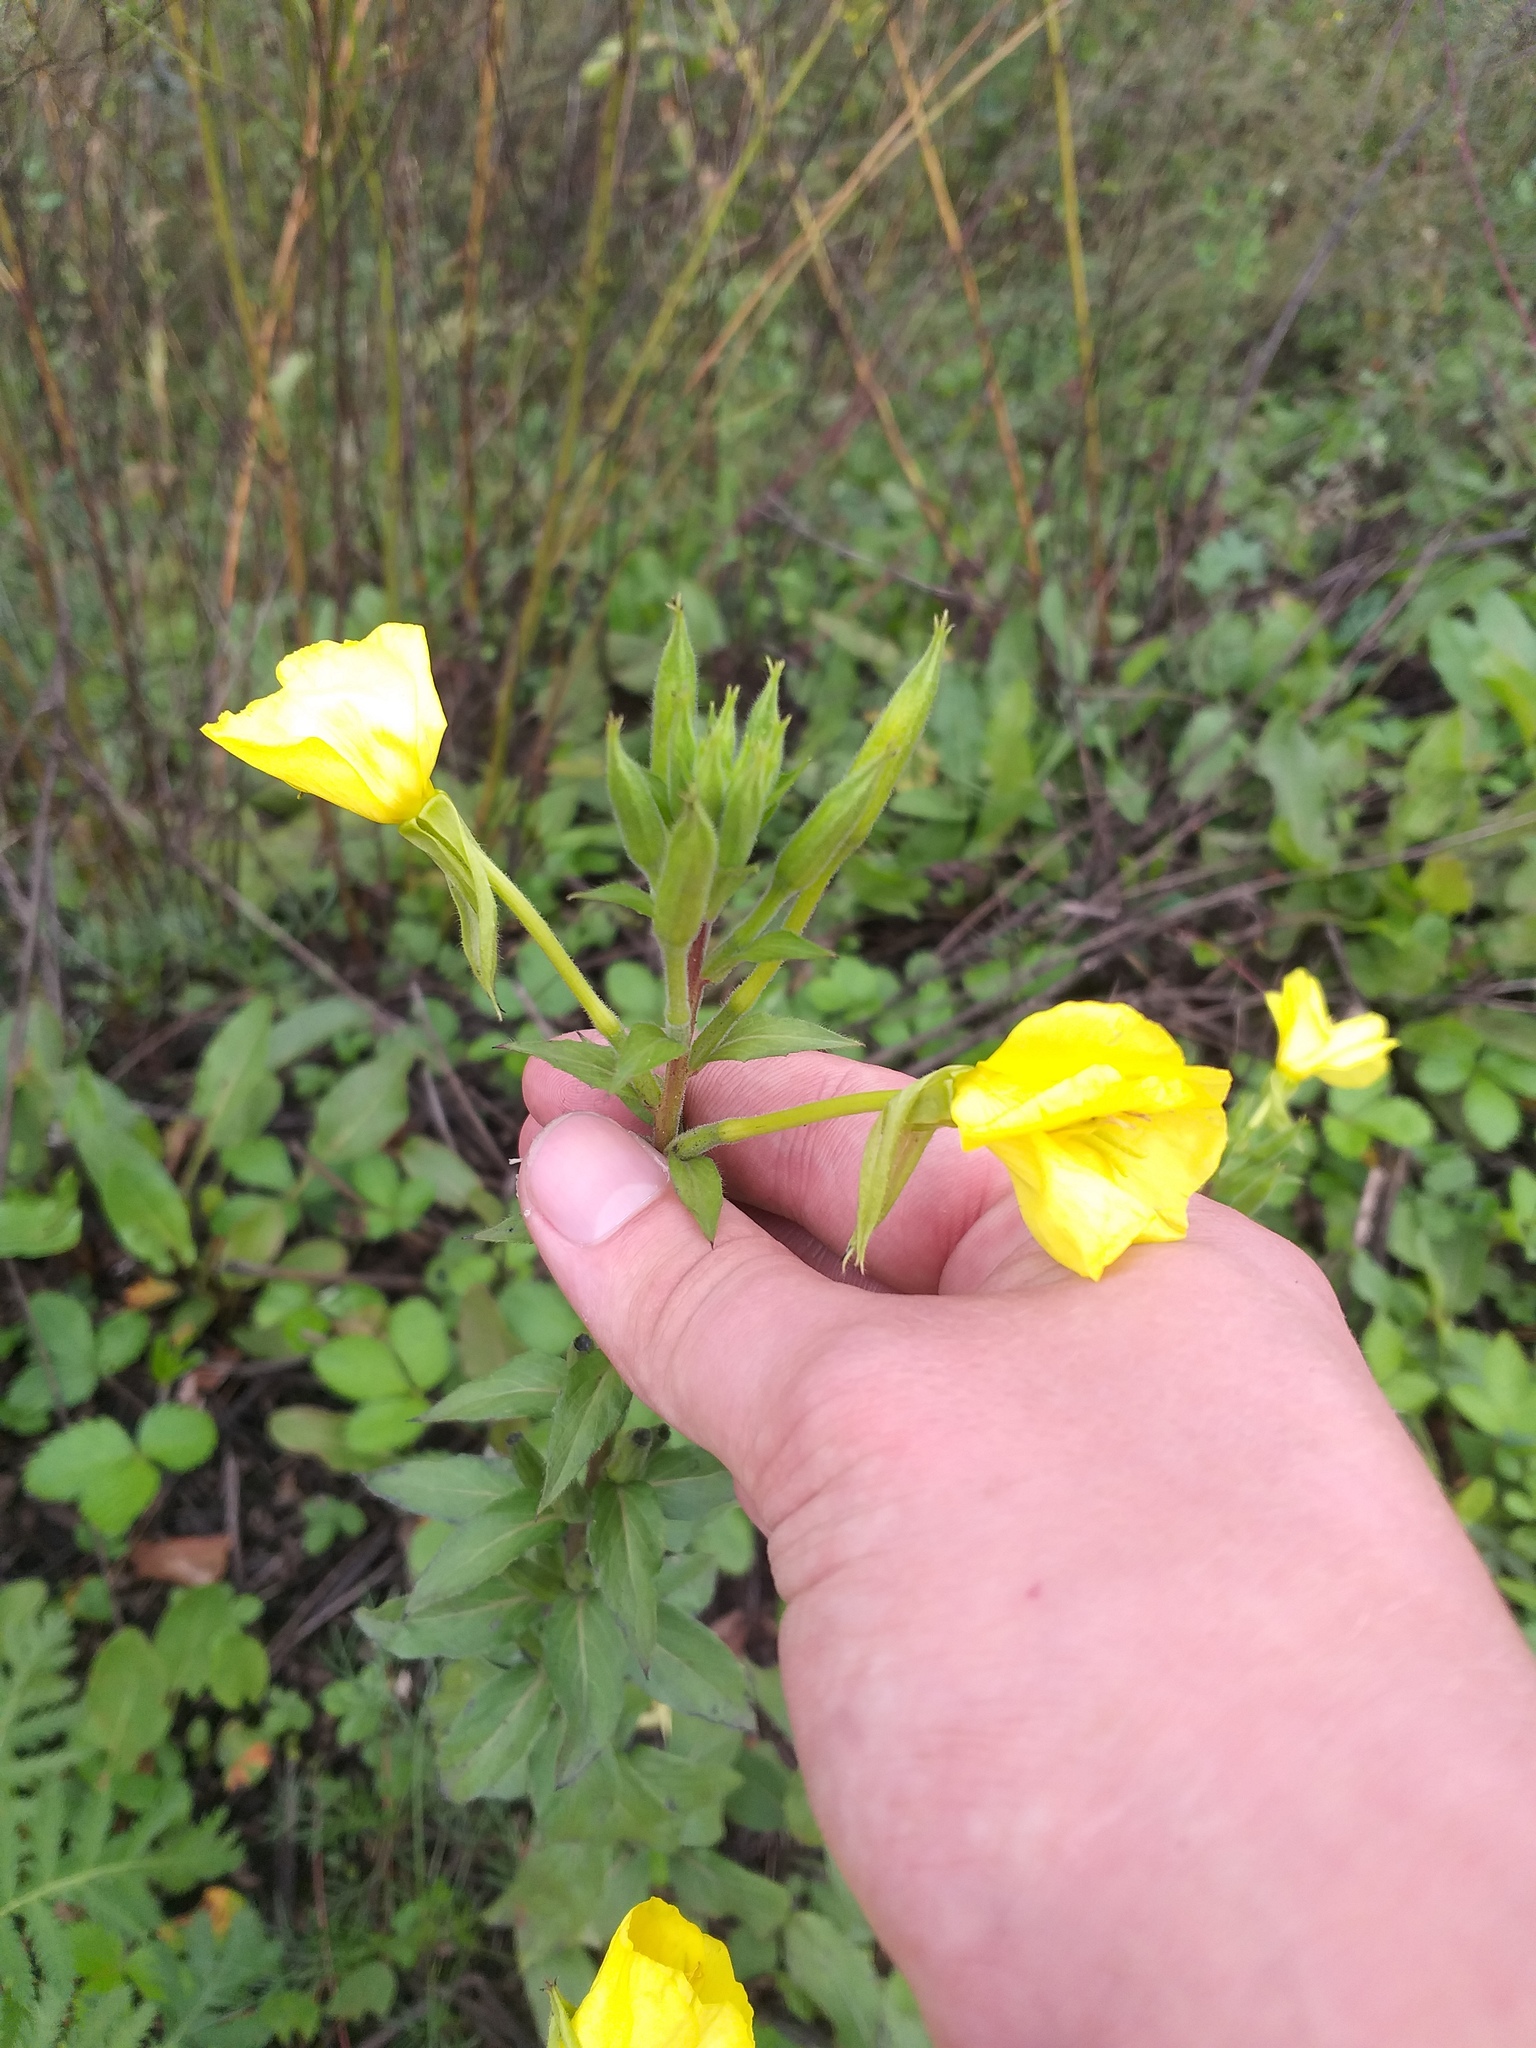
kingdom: Plantae
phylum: Tracheophyta
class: Magnoliopsida
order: Myrtales
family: Onagraceae
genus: Oenothera
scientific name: Oenothera rubricaulis
